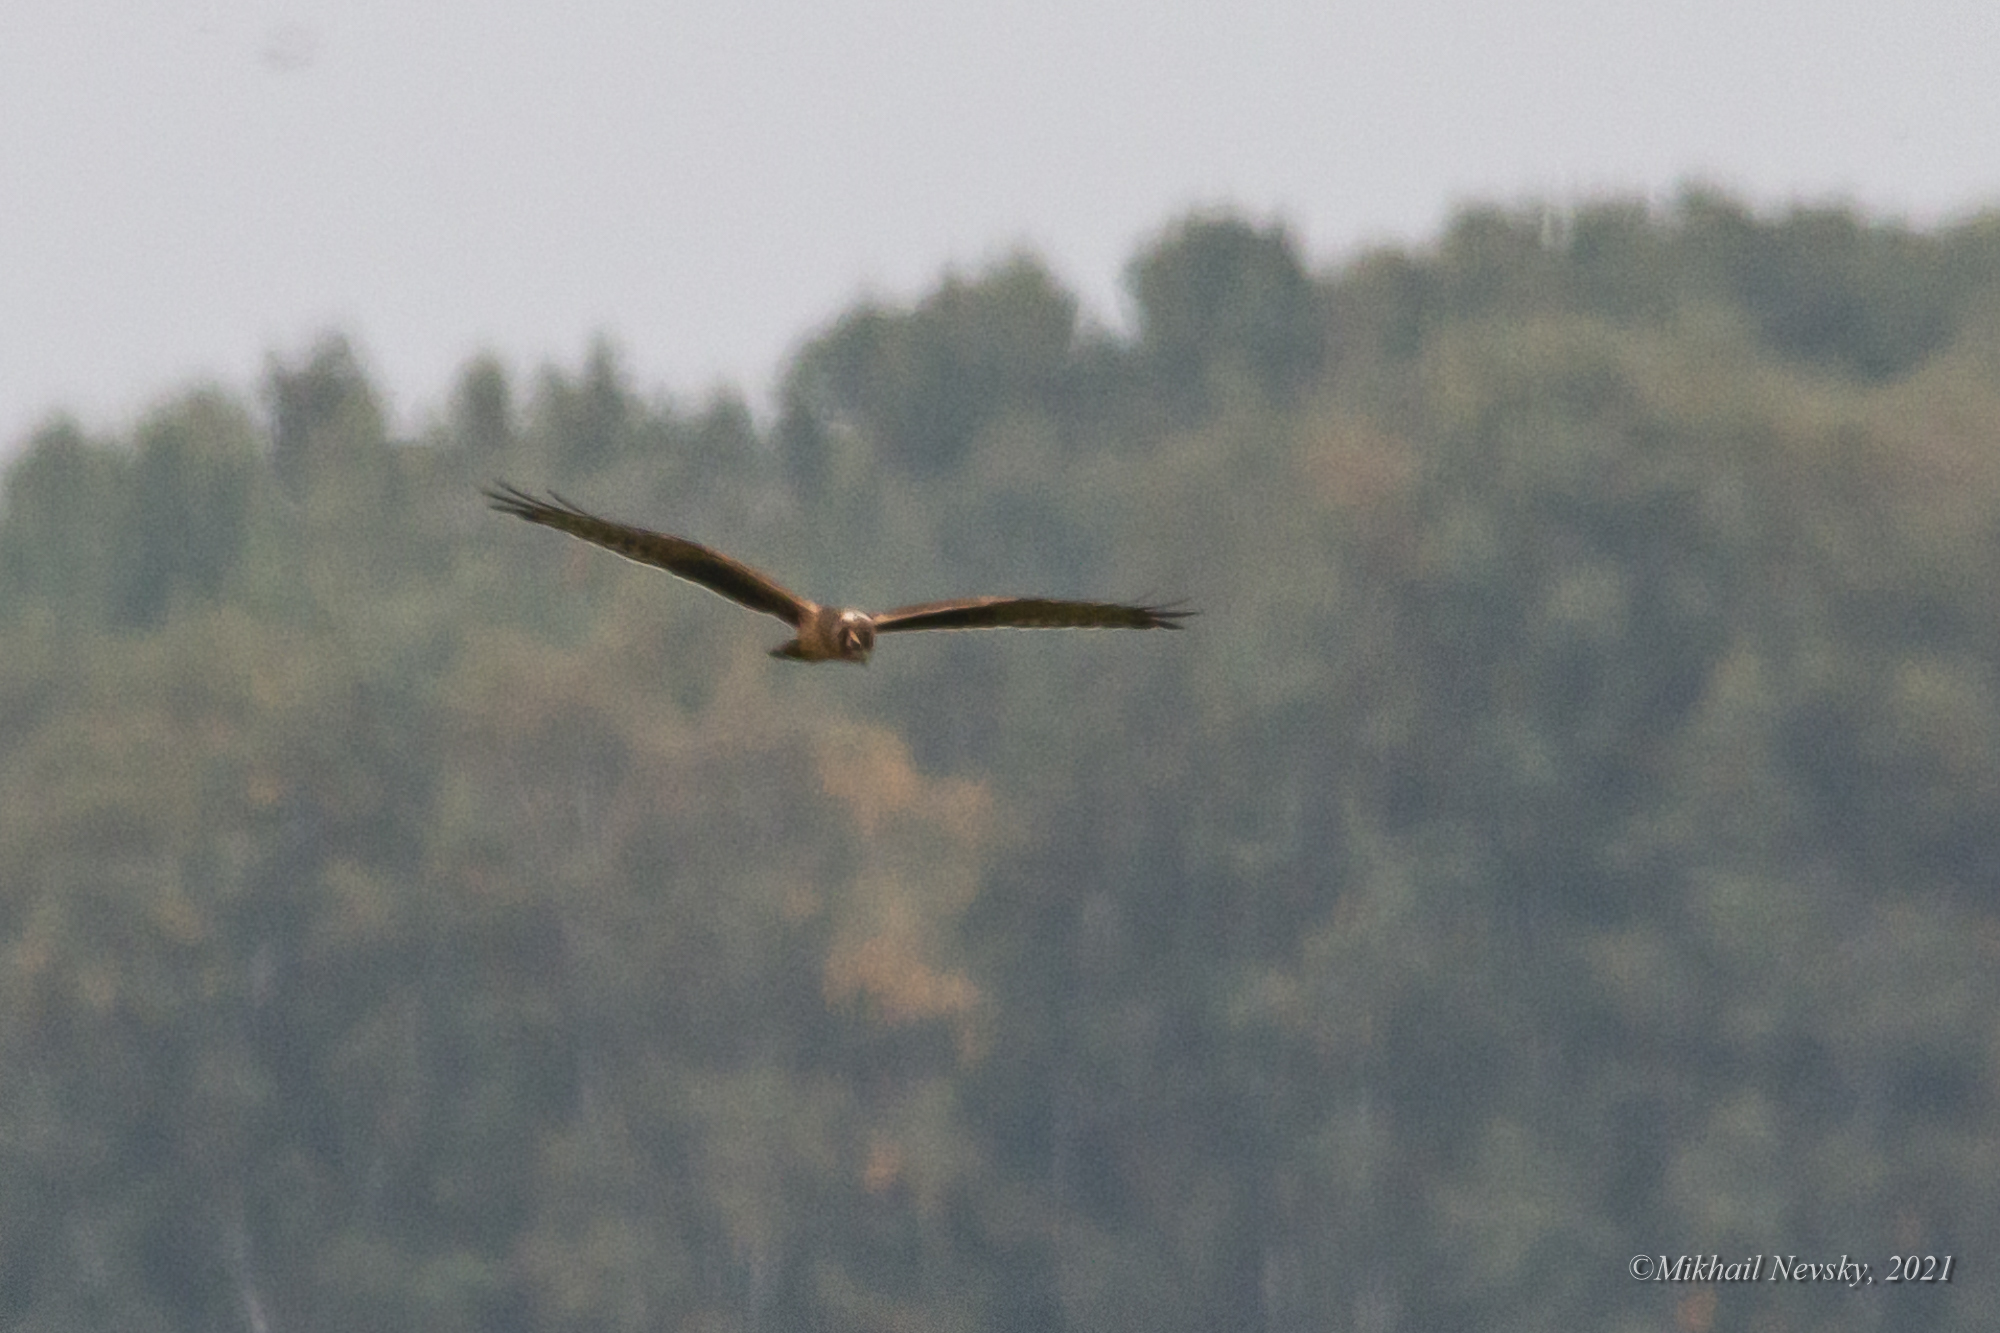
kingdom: Animalia
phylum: Chordata
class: Aves
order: Accipitriformes
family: Accipitridae
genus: Circus
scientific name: Circus macrourus
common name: Pallid harrier
